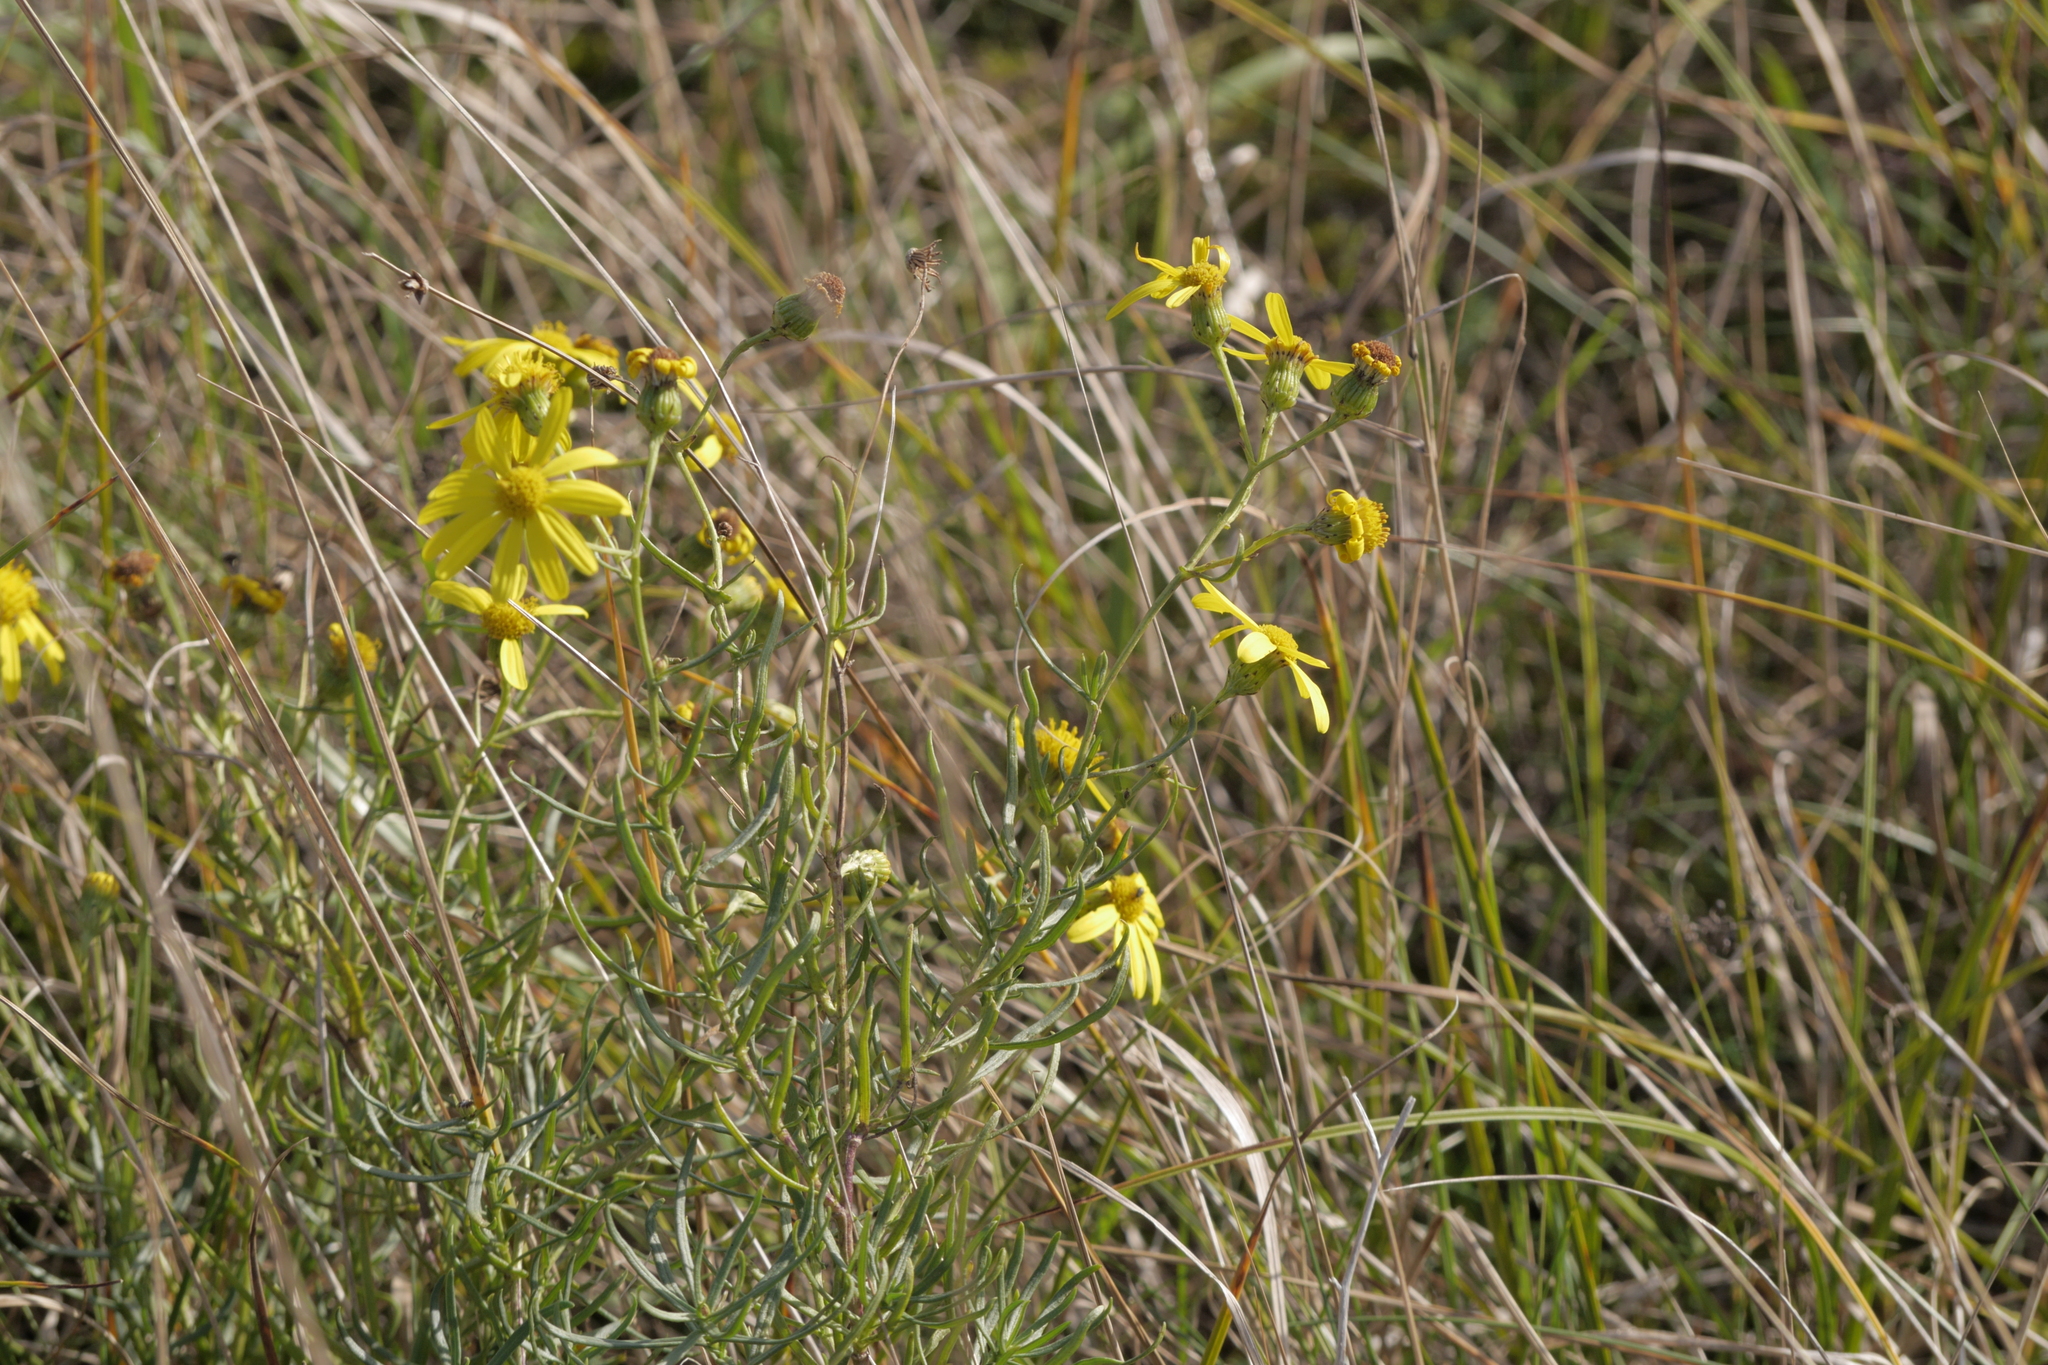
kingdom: Plantae
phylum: Tracheophyta
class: Magnoliopsida
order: Asterales
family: Asteraceae
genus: Senecio
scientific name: Senecio inaequidens
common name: Narrow-leaved ragwort
